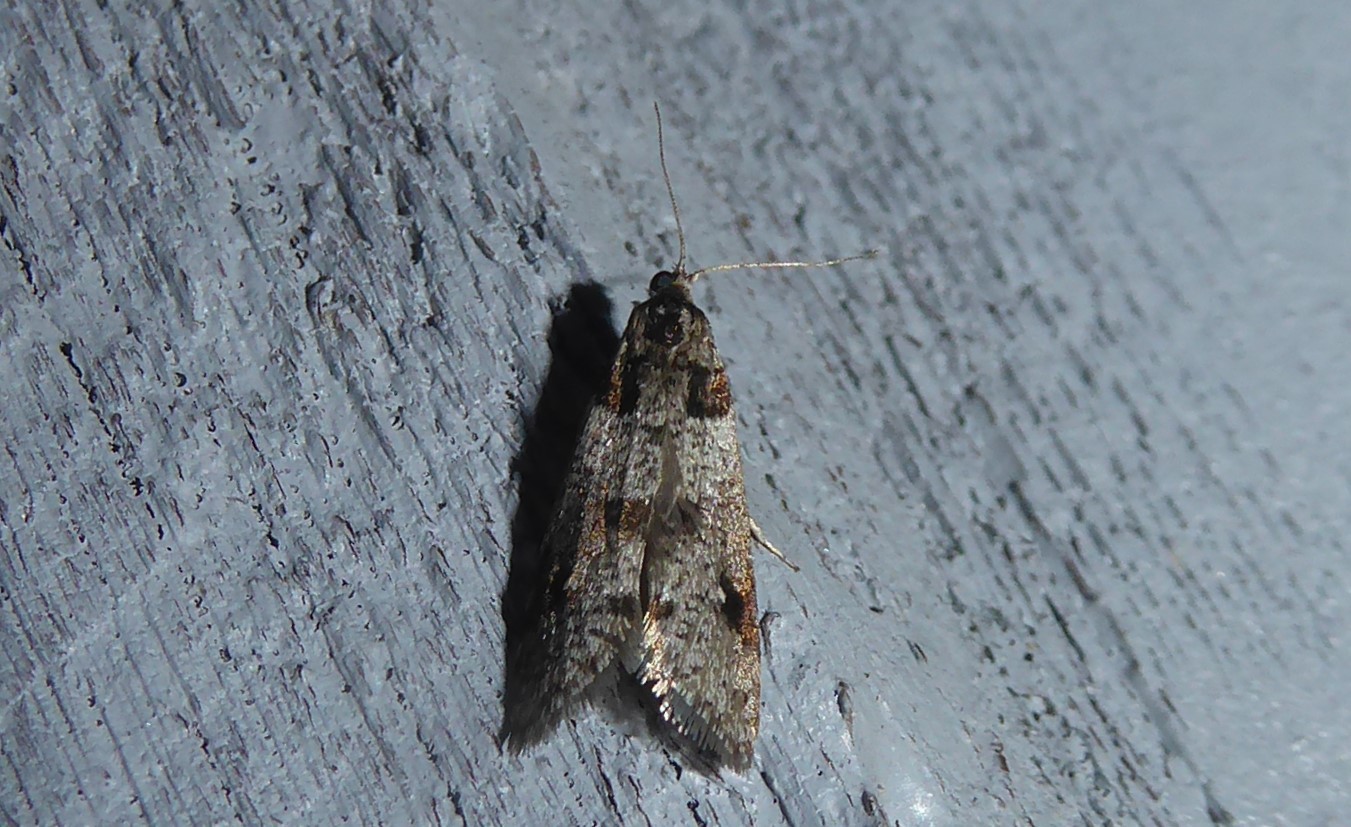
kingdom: Animalia
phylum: Arthropoda
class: Insecta
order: Lepidoptera
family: Psychidae
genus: Lepidoscia
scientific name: Lepidoscia heliochares
